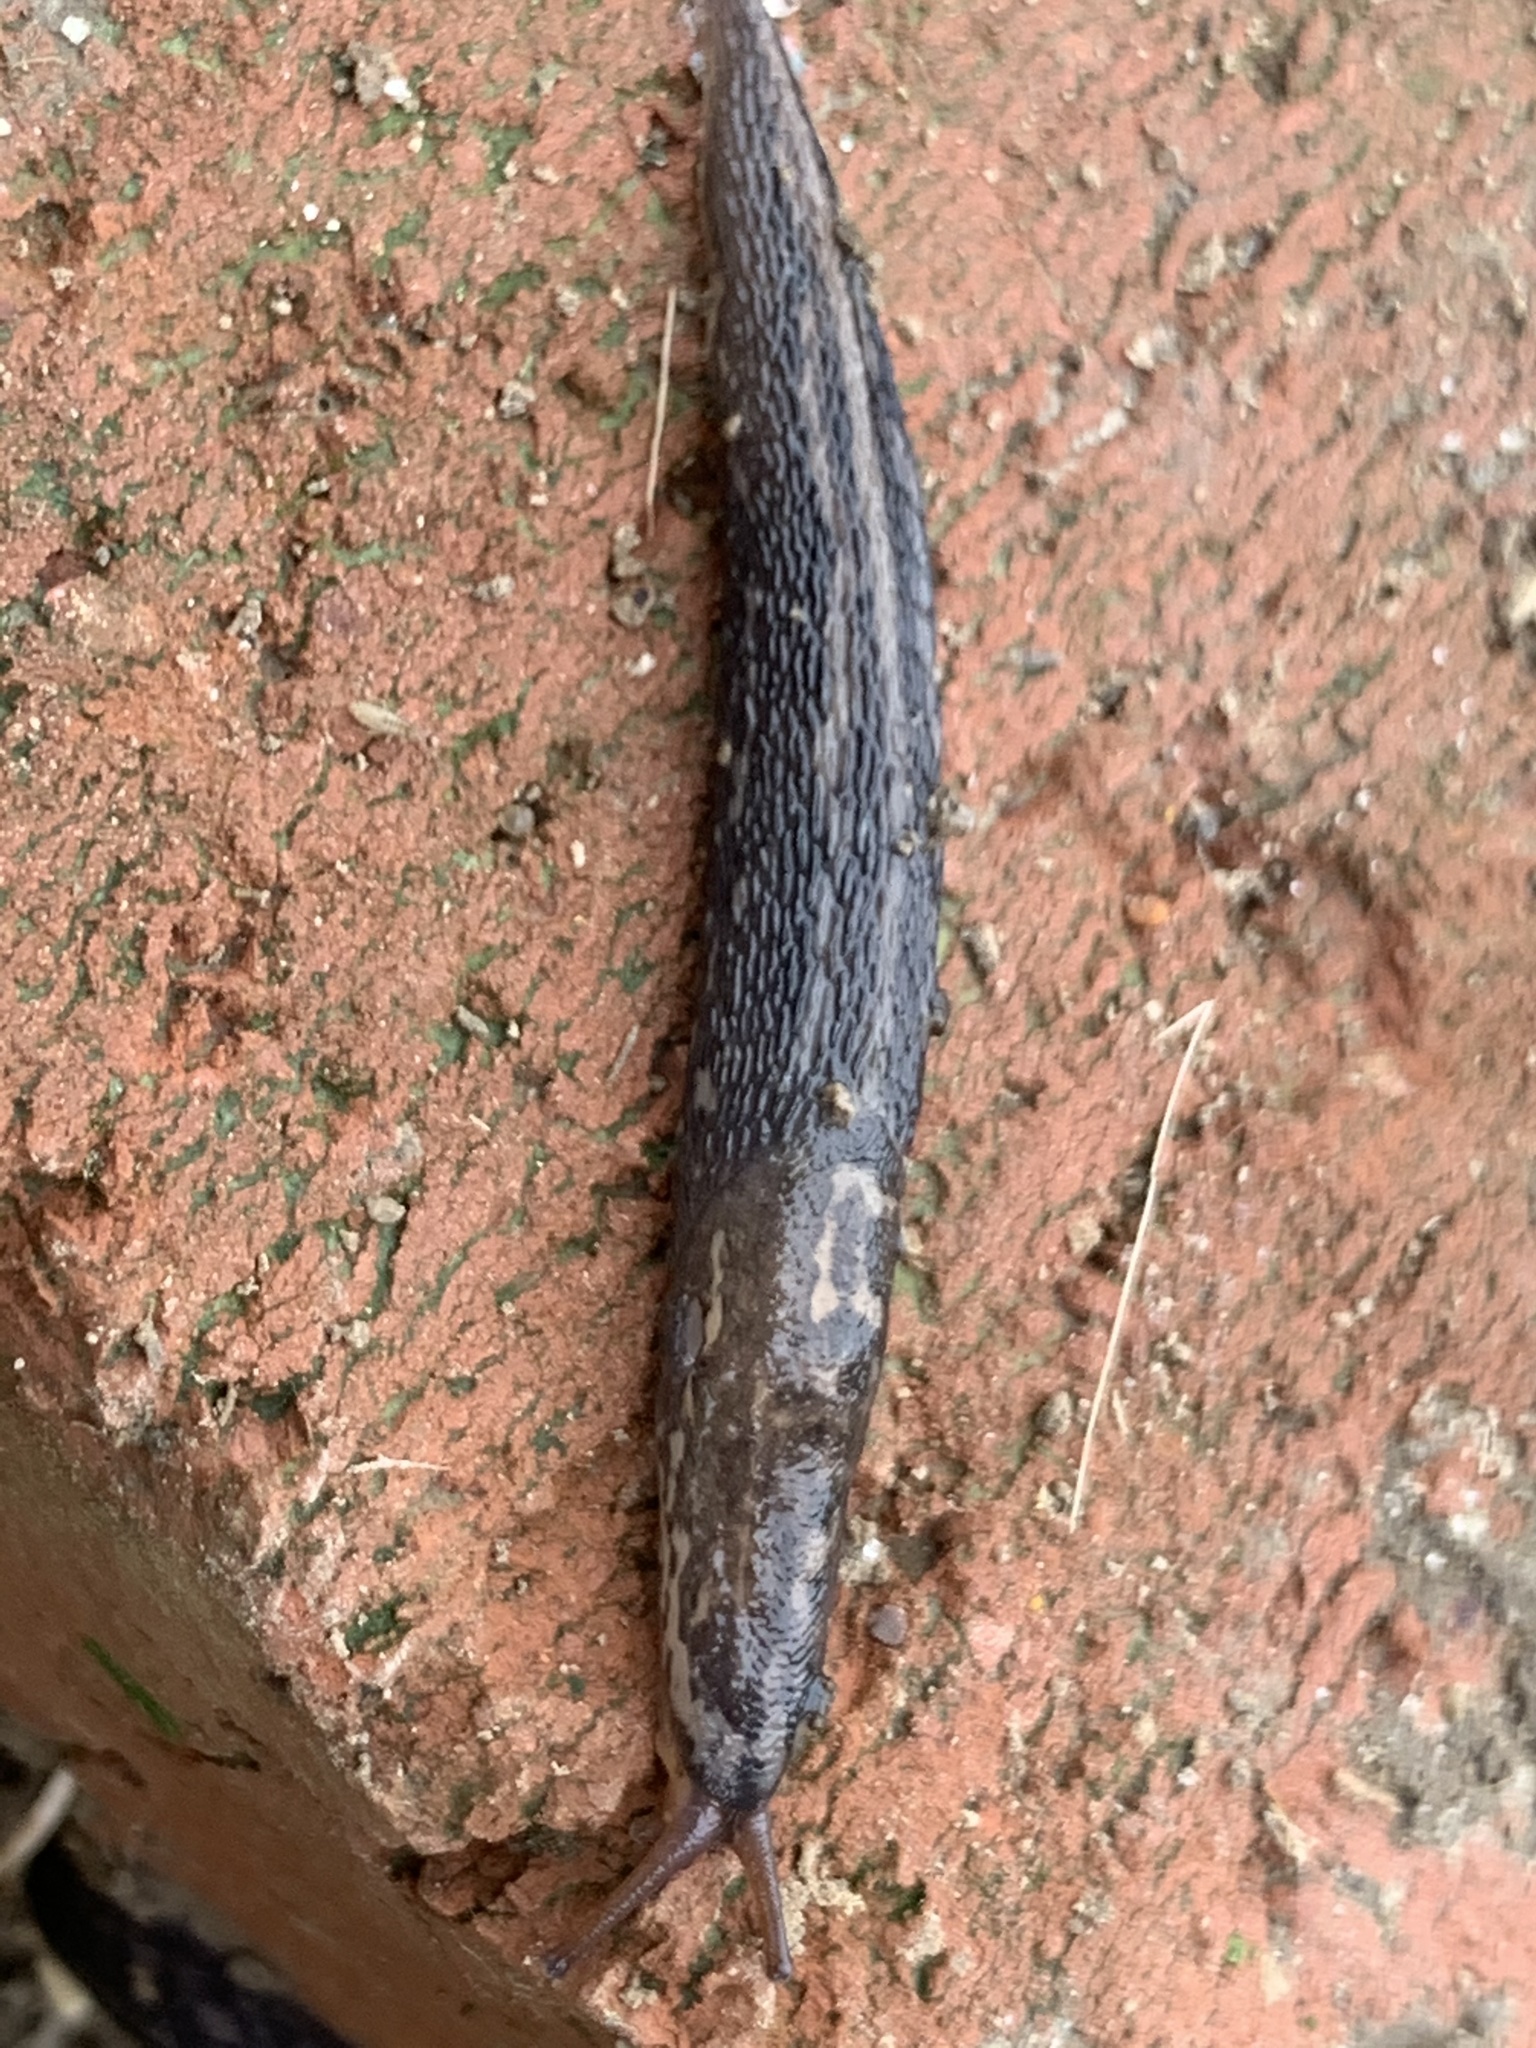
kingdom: Animalia
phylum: Mollusca
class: Gastropoda
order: Stylommatophora
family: Limacidae
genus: Limax
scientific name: Limax maximus
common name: Great grey slug
